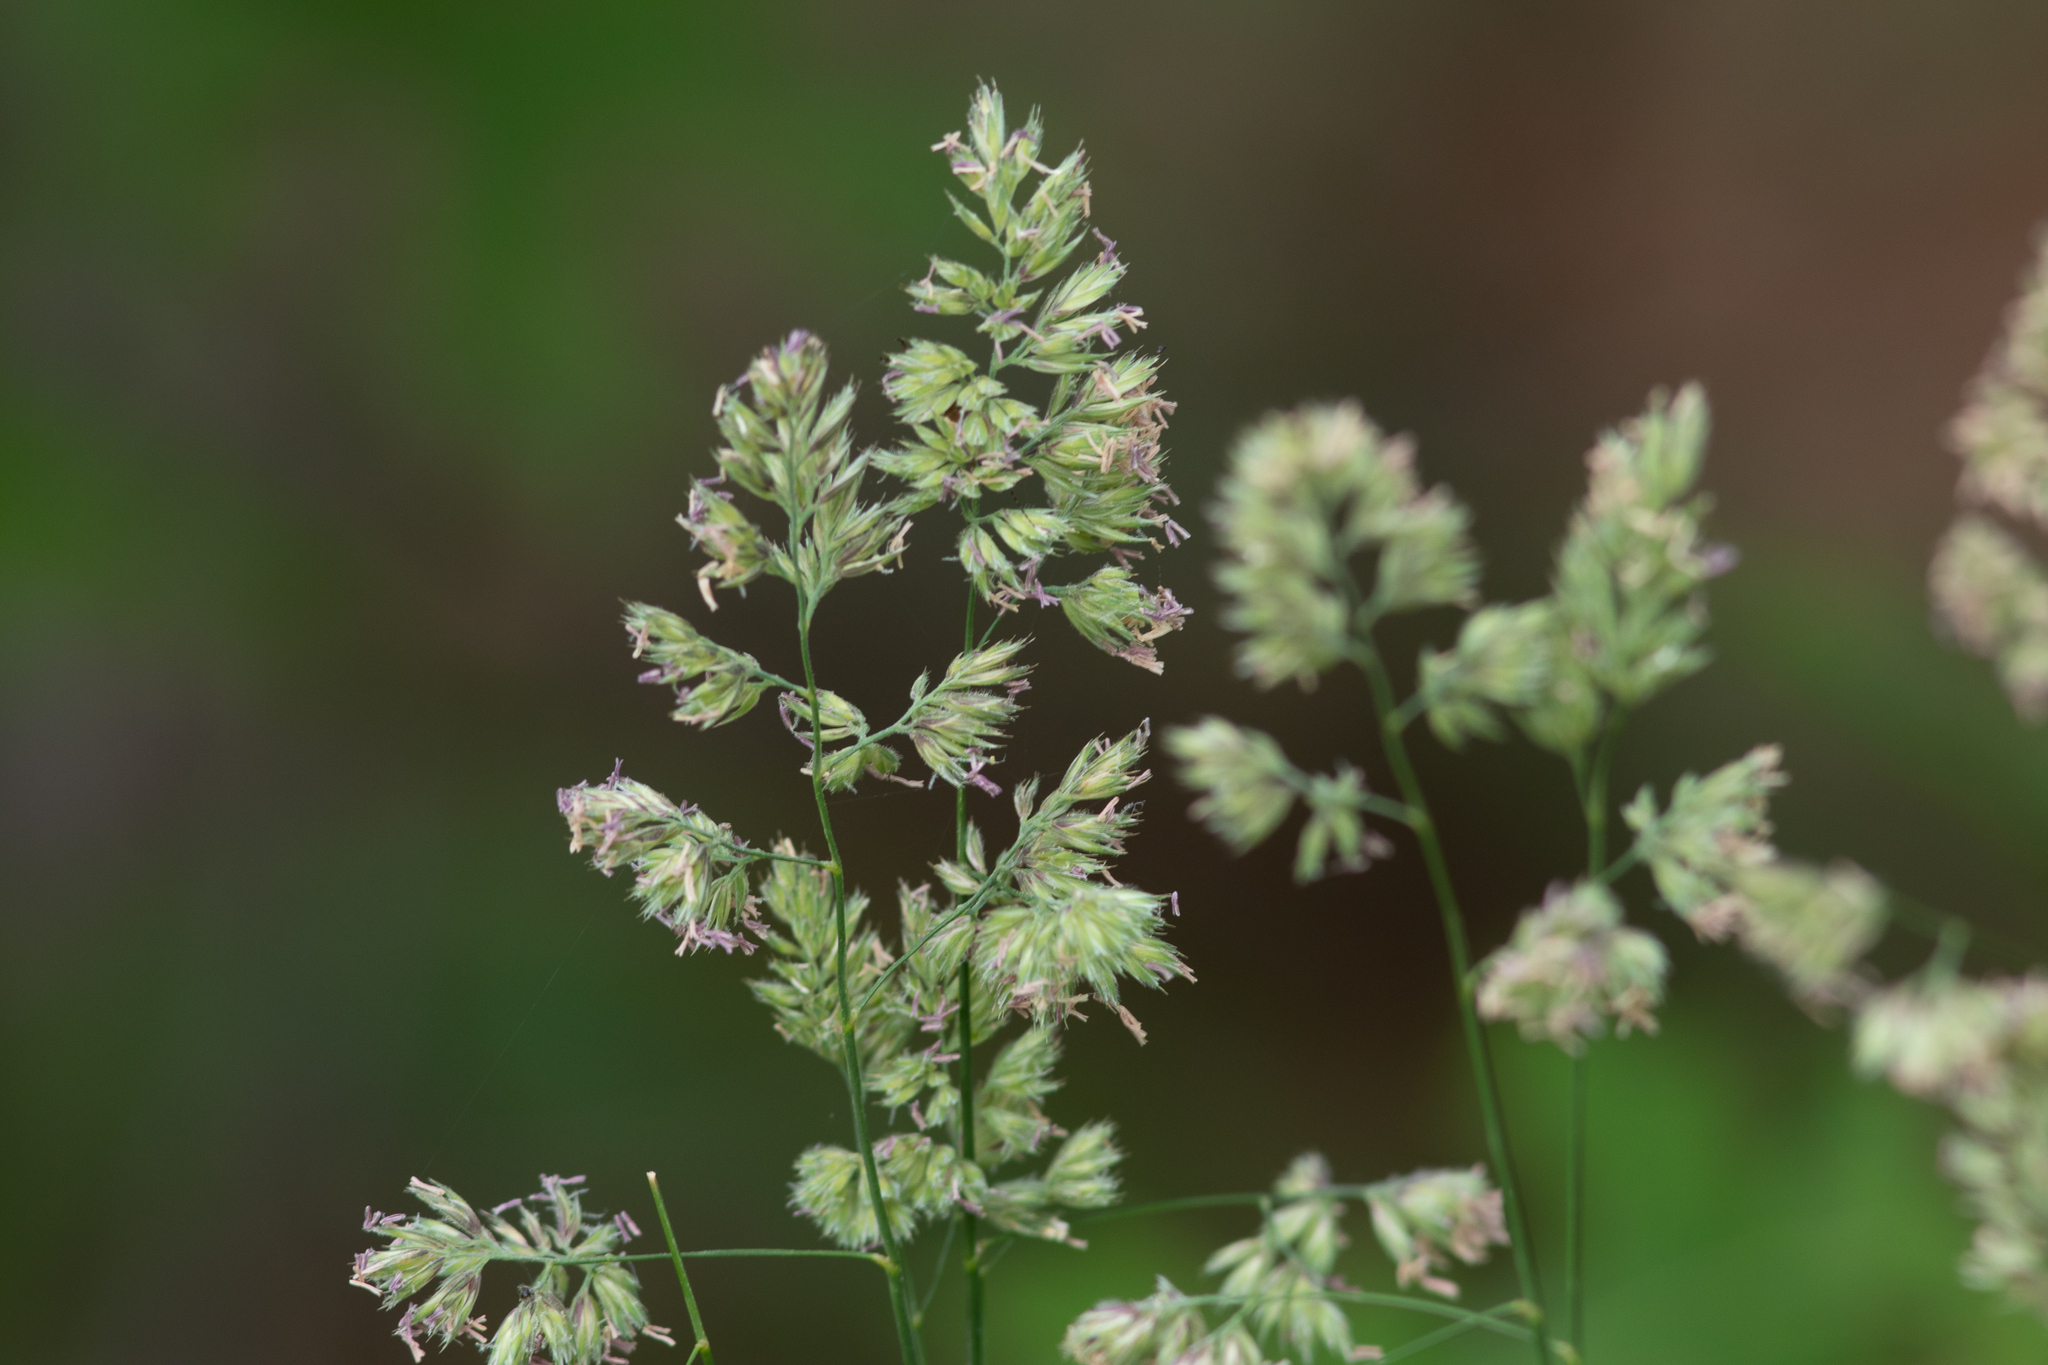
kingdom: Plantae
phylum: Tracheophyta
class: Liliopsida
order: Poales
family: Poaceae
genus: Dactylis
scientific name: Dactylis glomerata
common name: Orchardgrass
